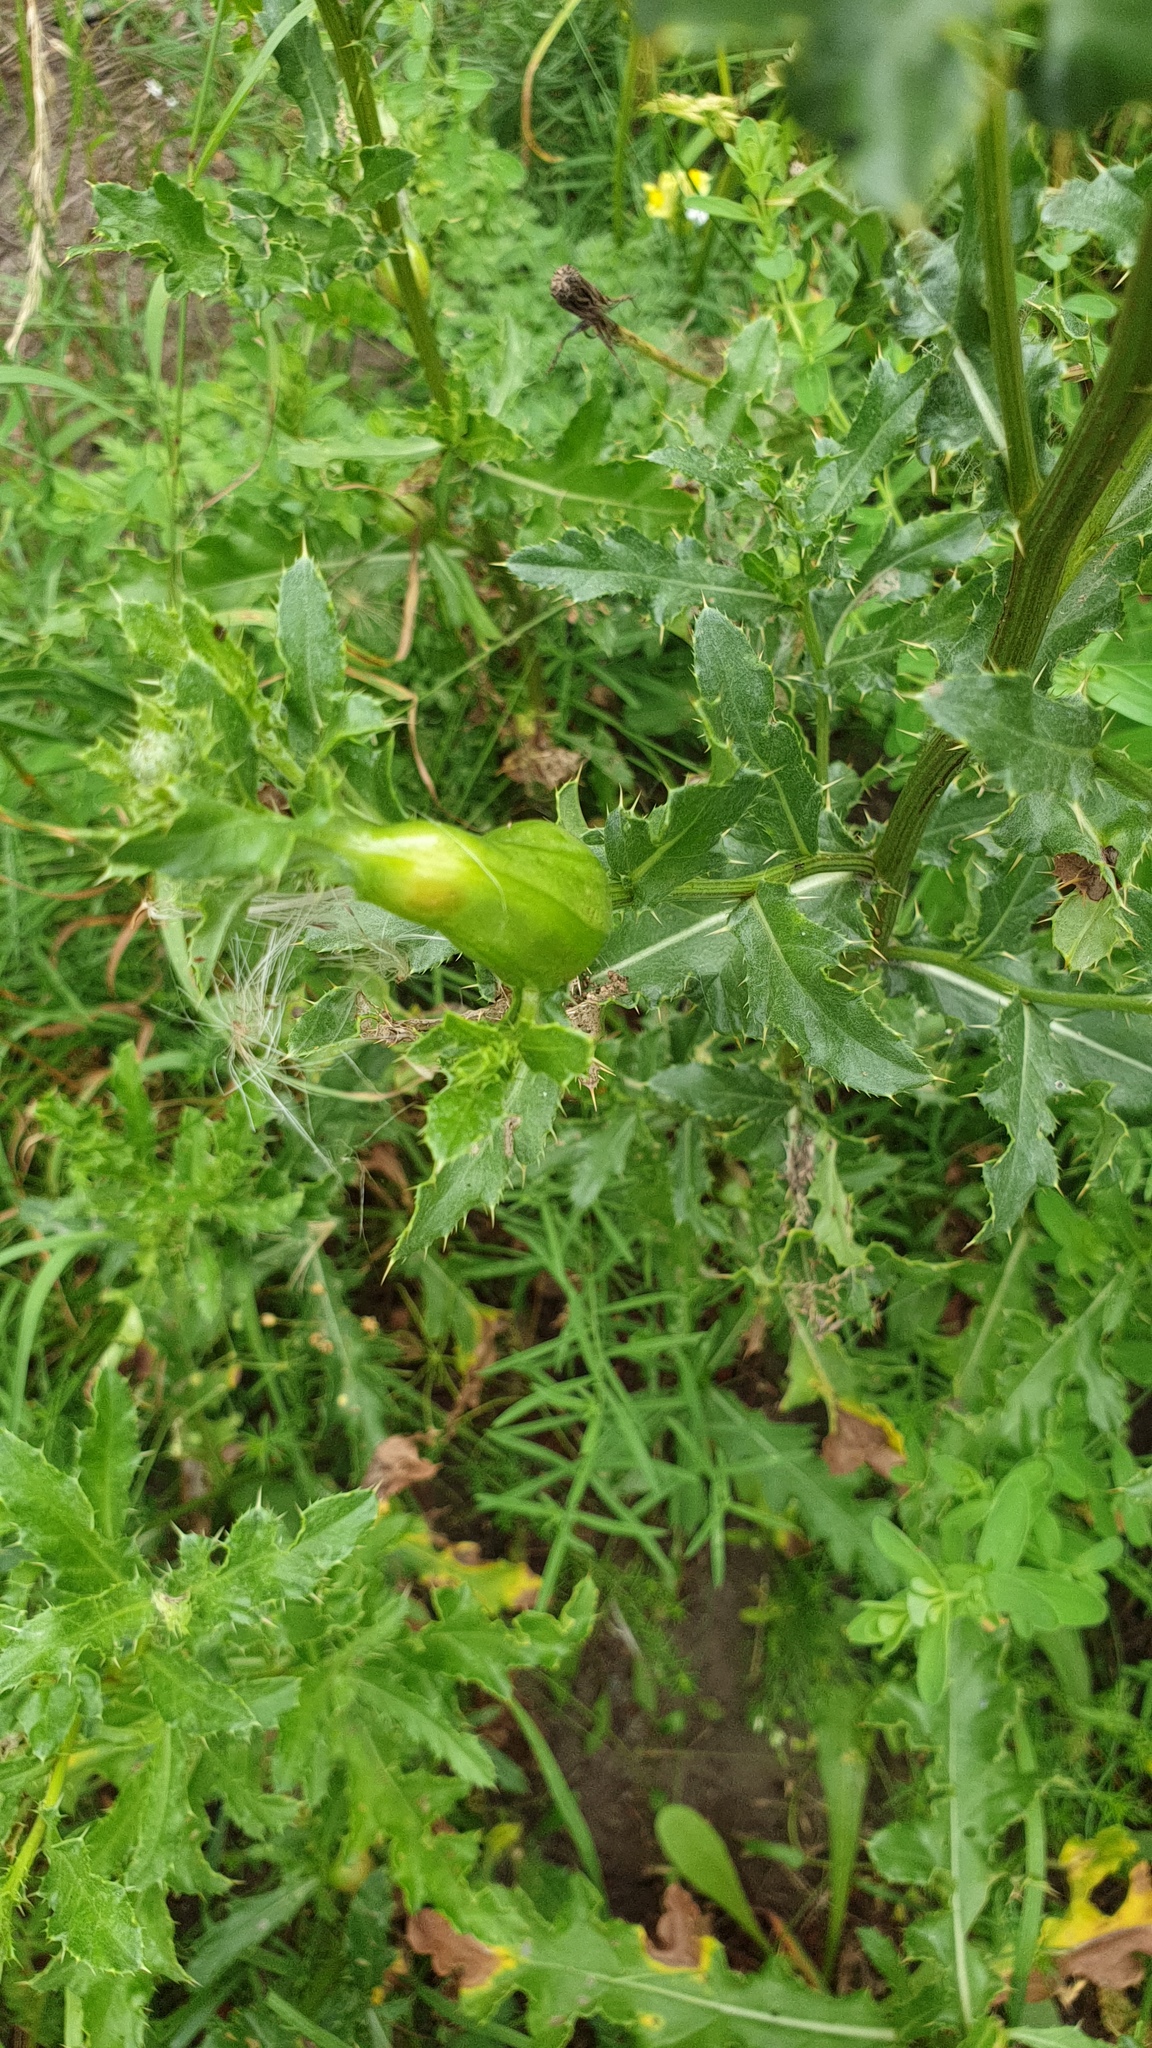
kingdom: Animalia
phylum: Arthropoda
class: Insecta
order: Diptera
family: Tephritidae
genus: Urophora
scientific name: Urophora cardui
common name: Fruit fly
